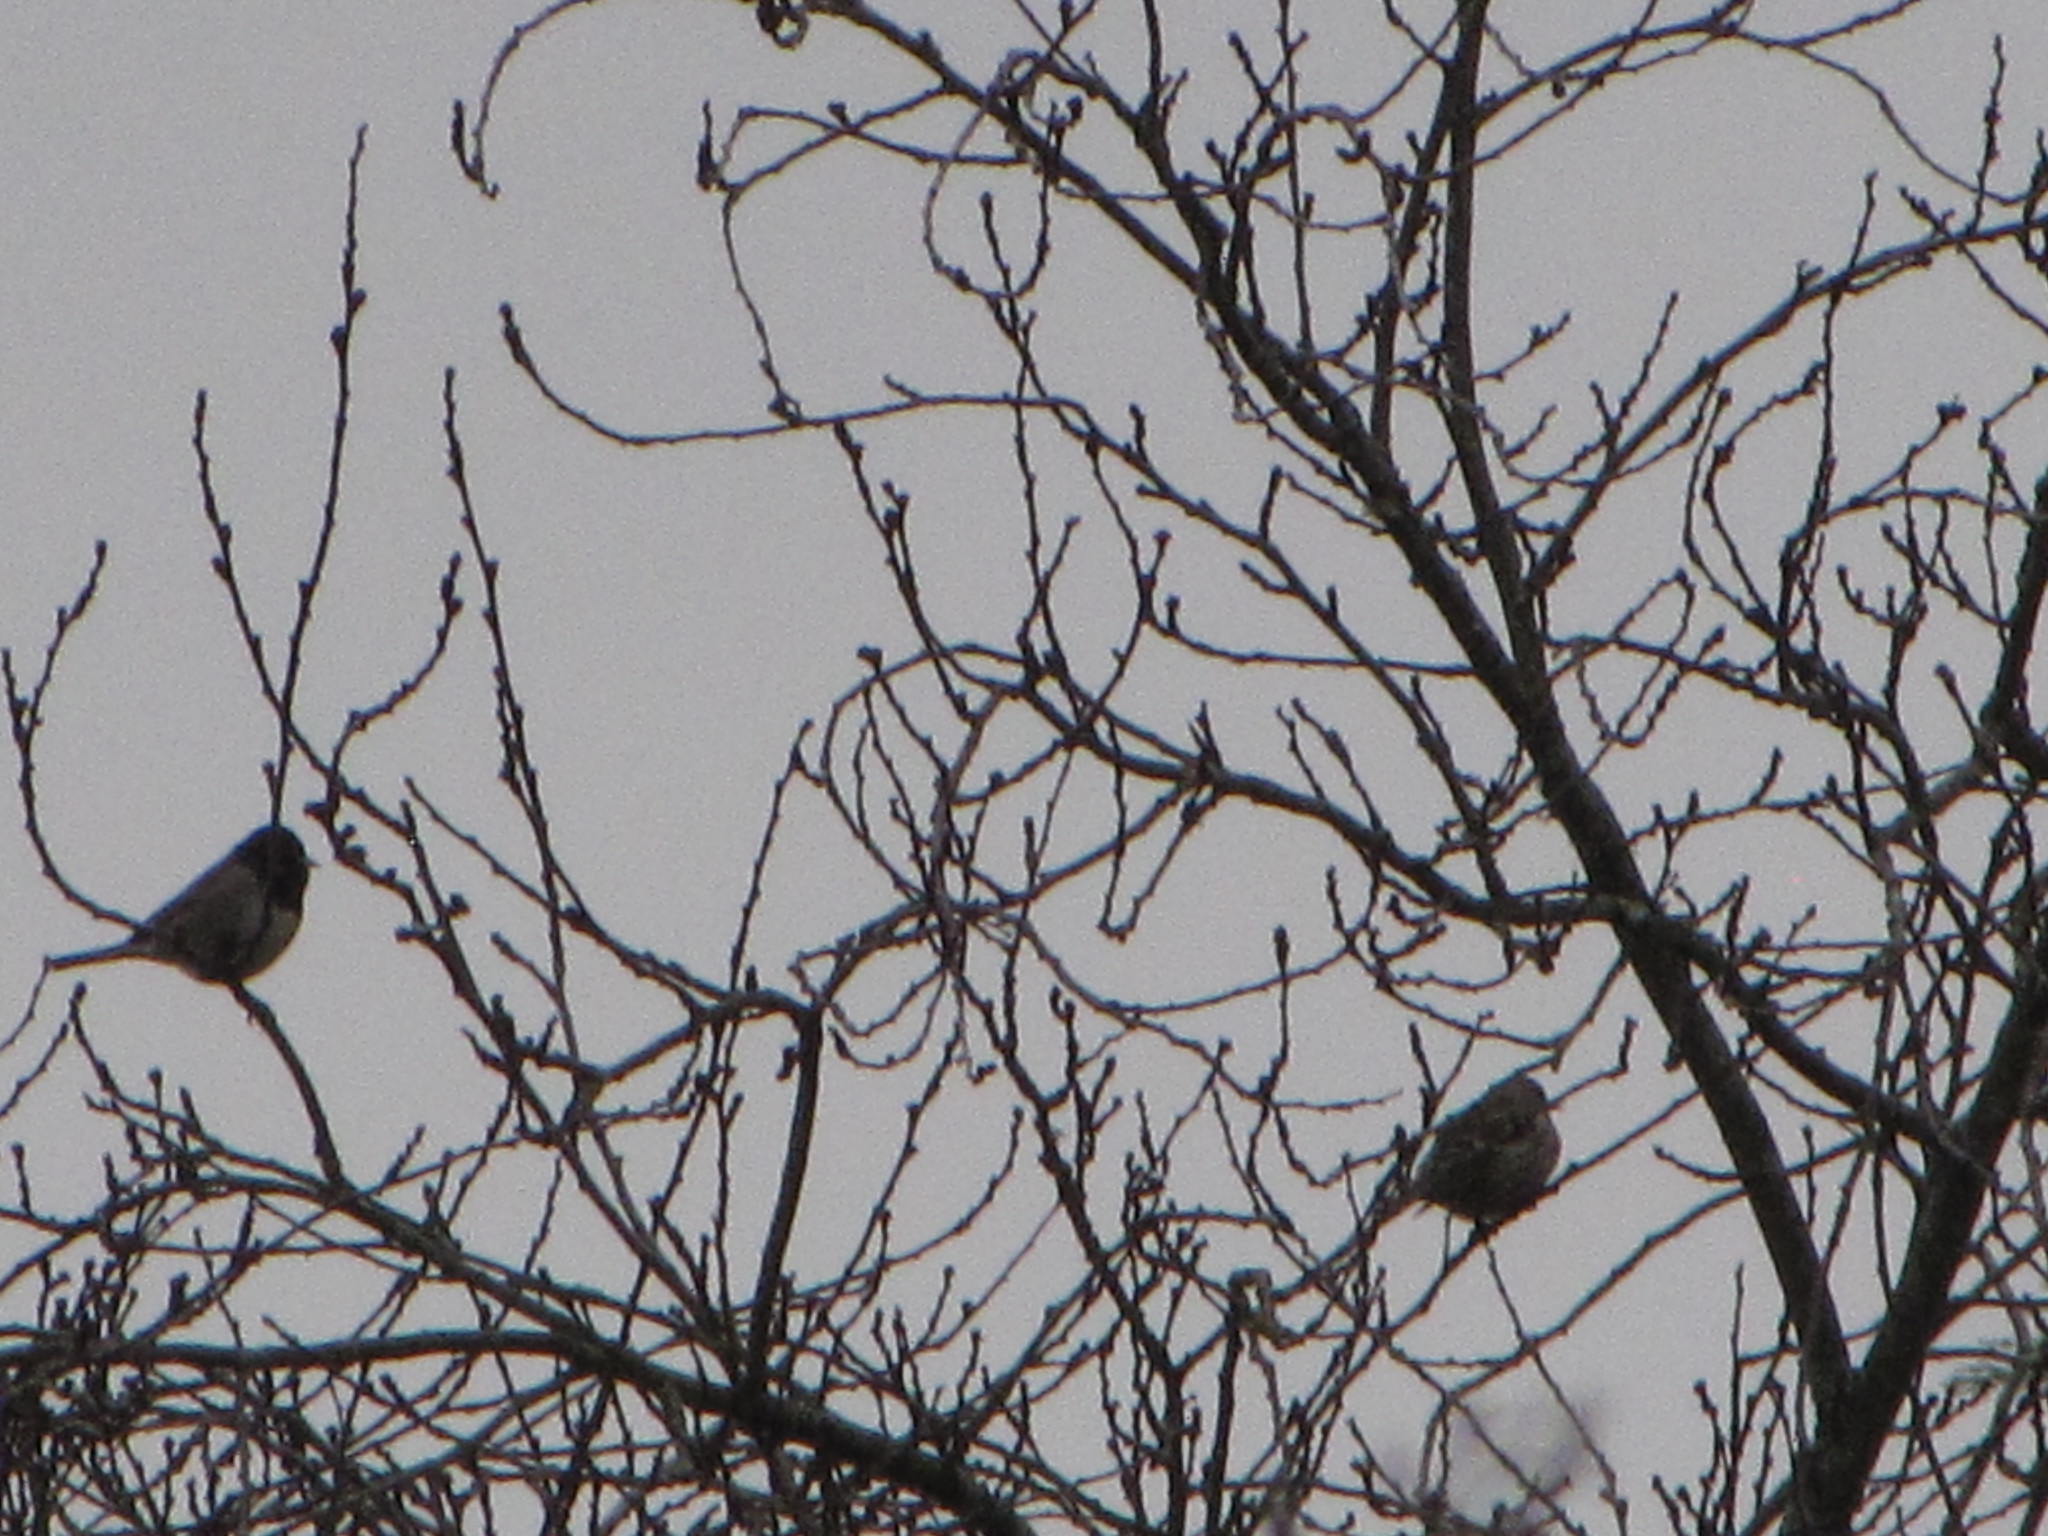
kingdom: Animalia
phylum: Chordata
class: Aves
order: Passeriformes
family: Fringillidae
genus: Spinus
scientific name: Spinus pinus
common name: Pine siskin
